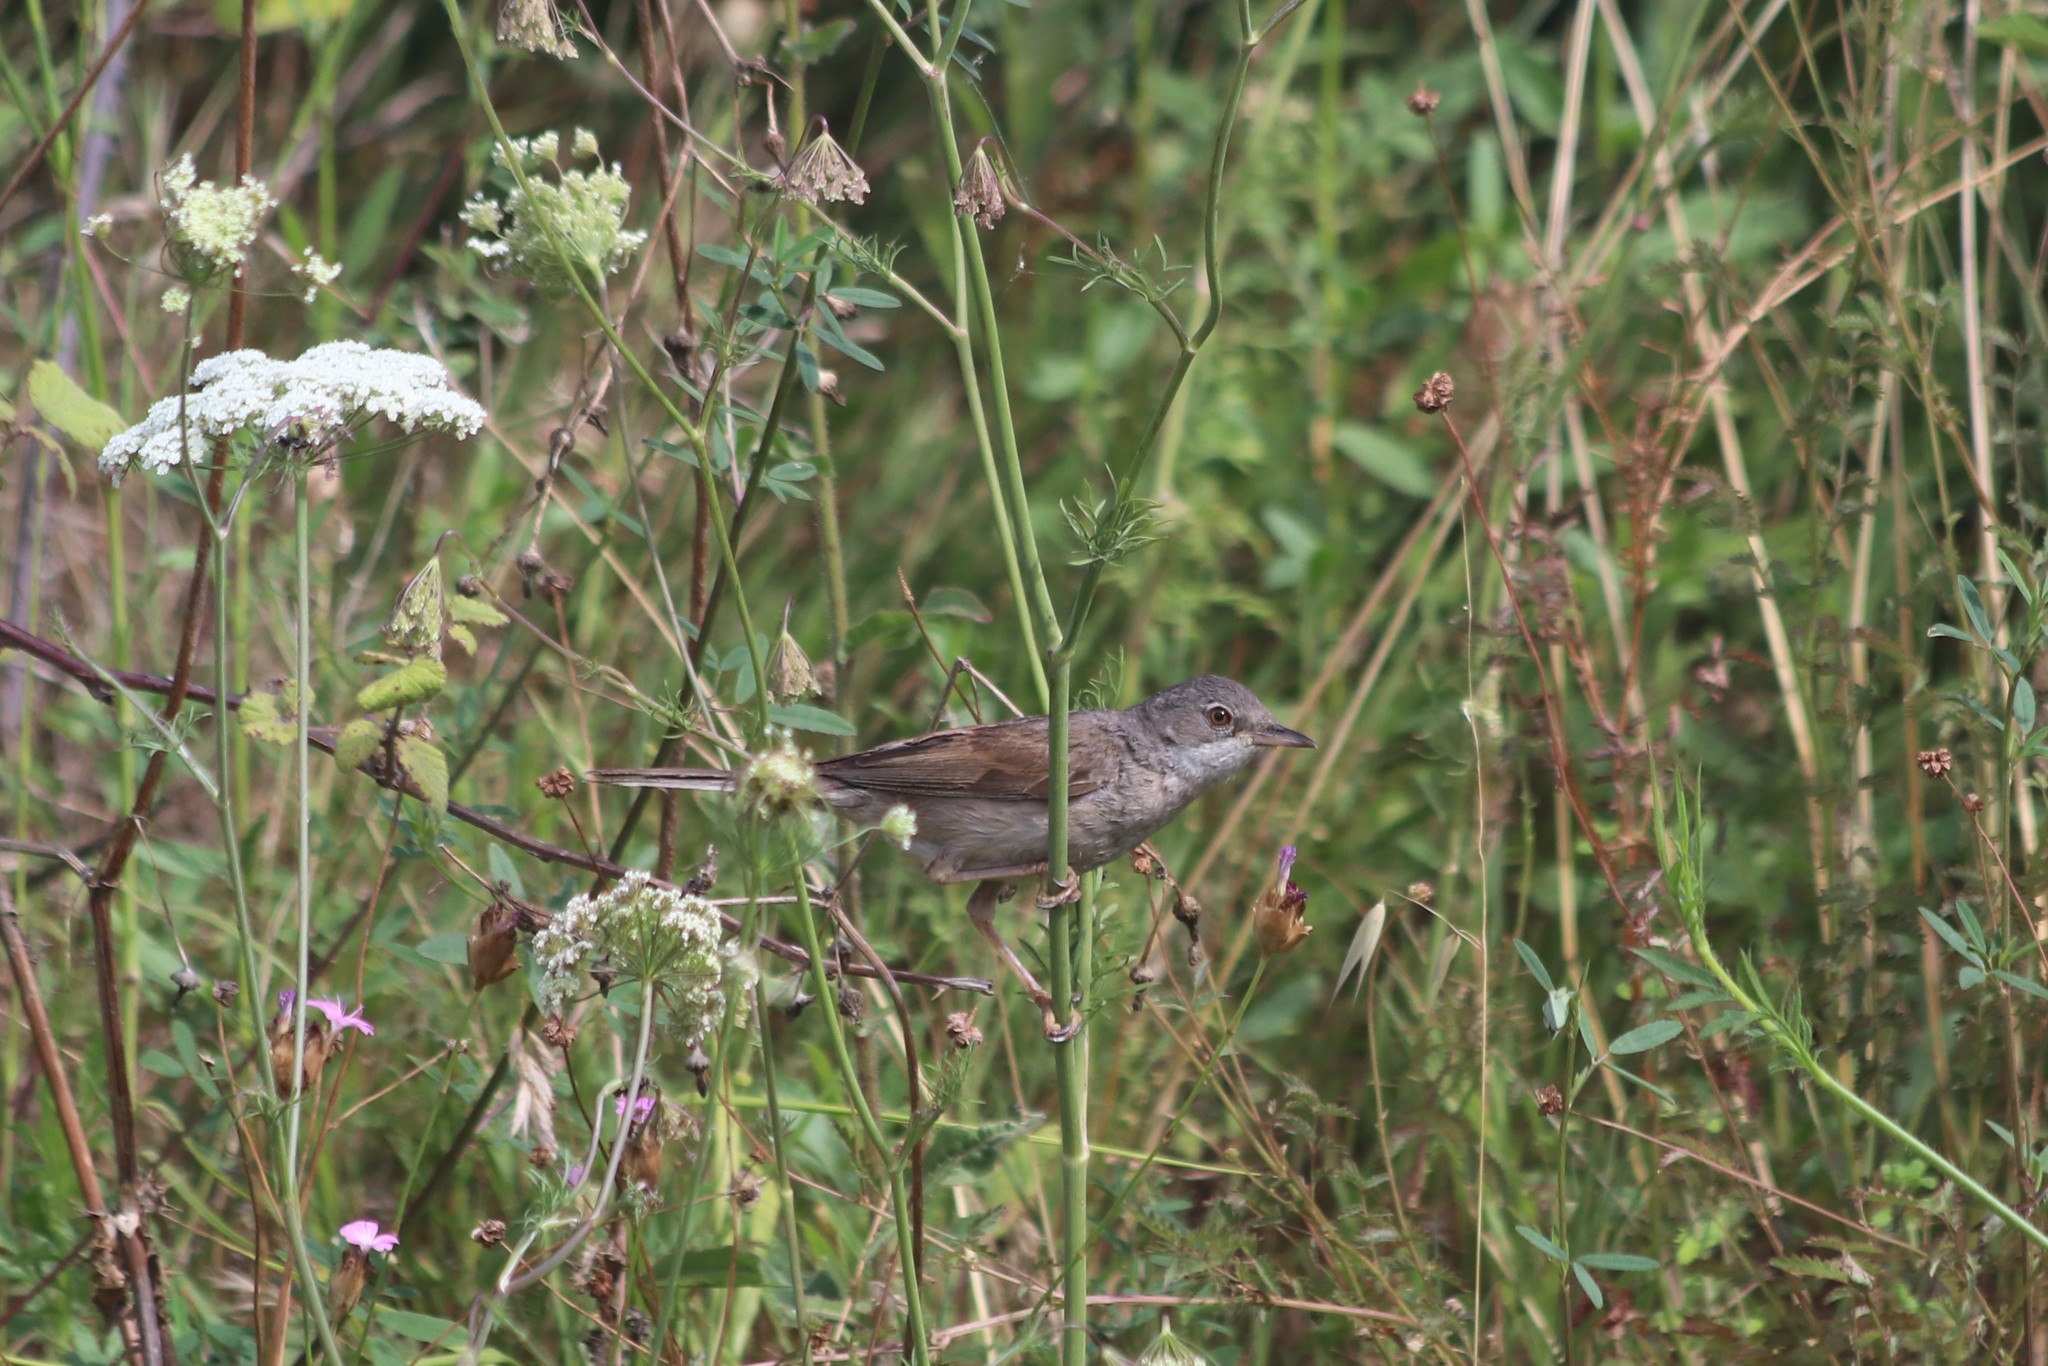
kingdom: Animalia
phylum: Chordata
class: Aves
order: Passeriformes
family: Sylviidae
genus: Sylvia
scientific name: Sylvia communis
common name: Common whitethroat
